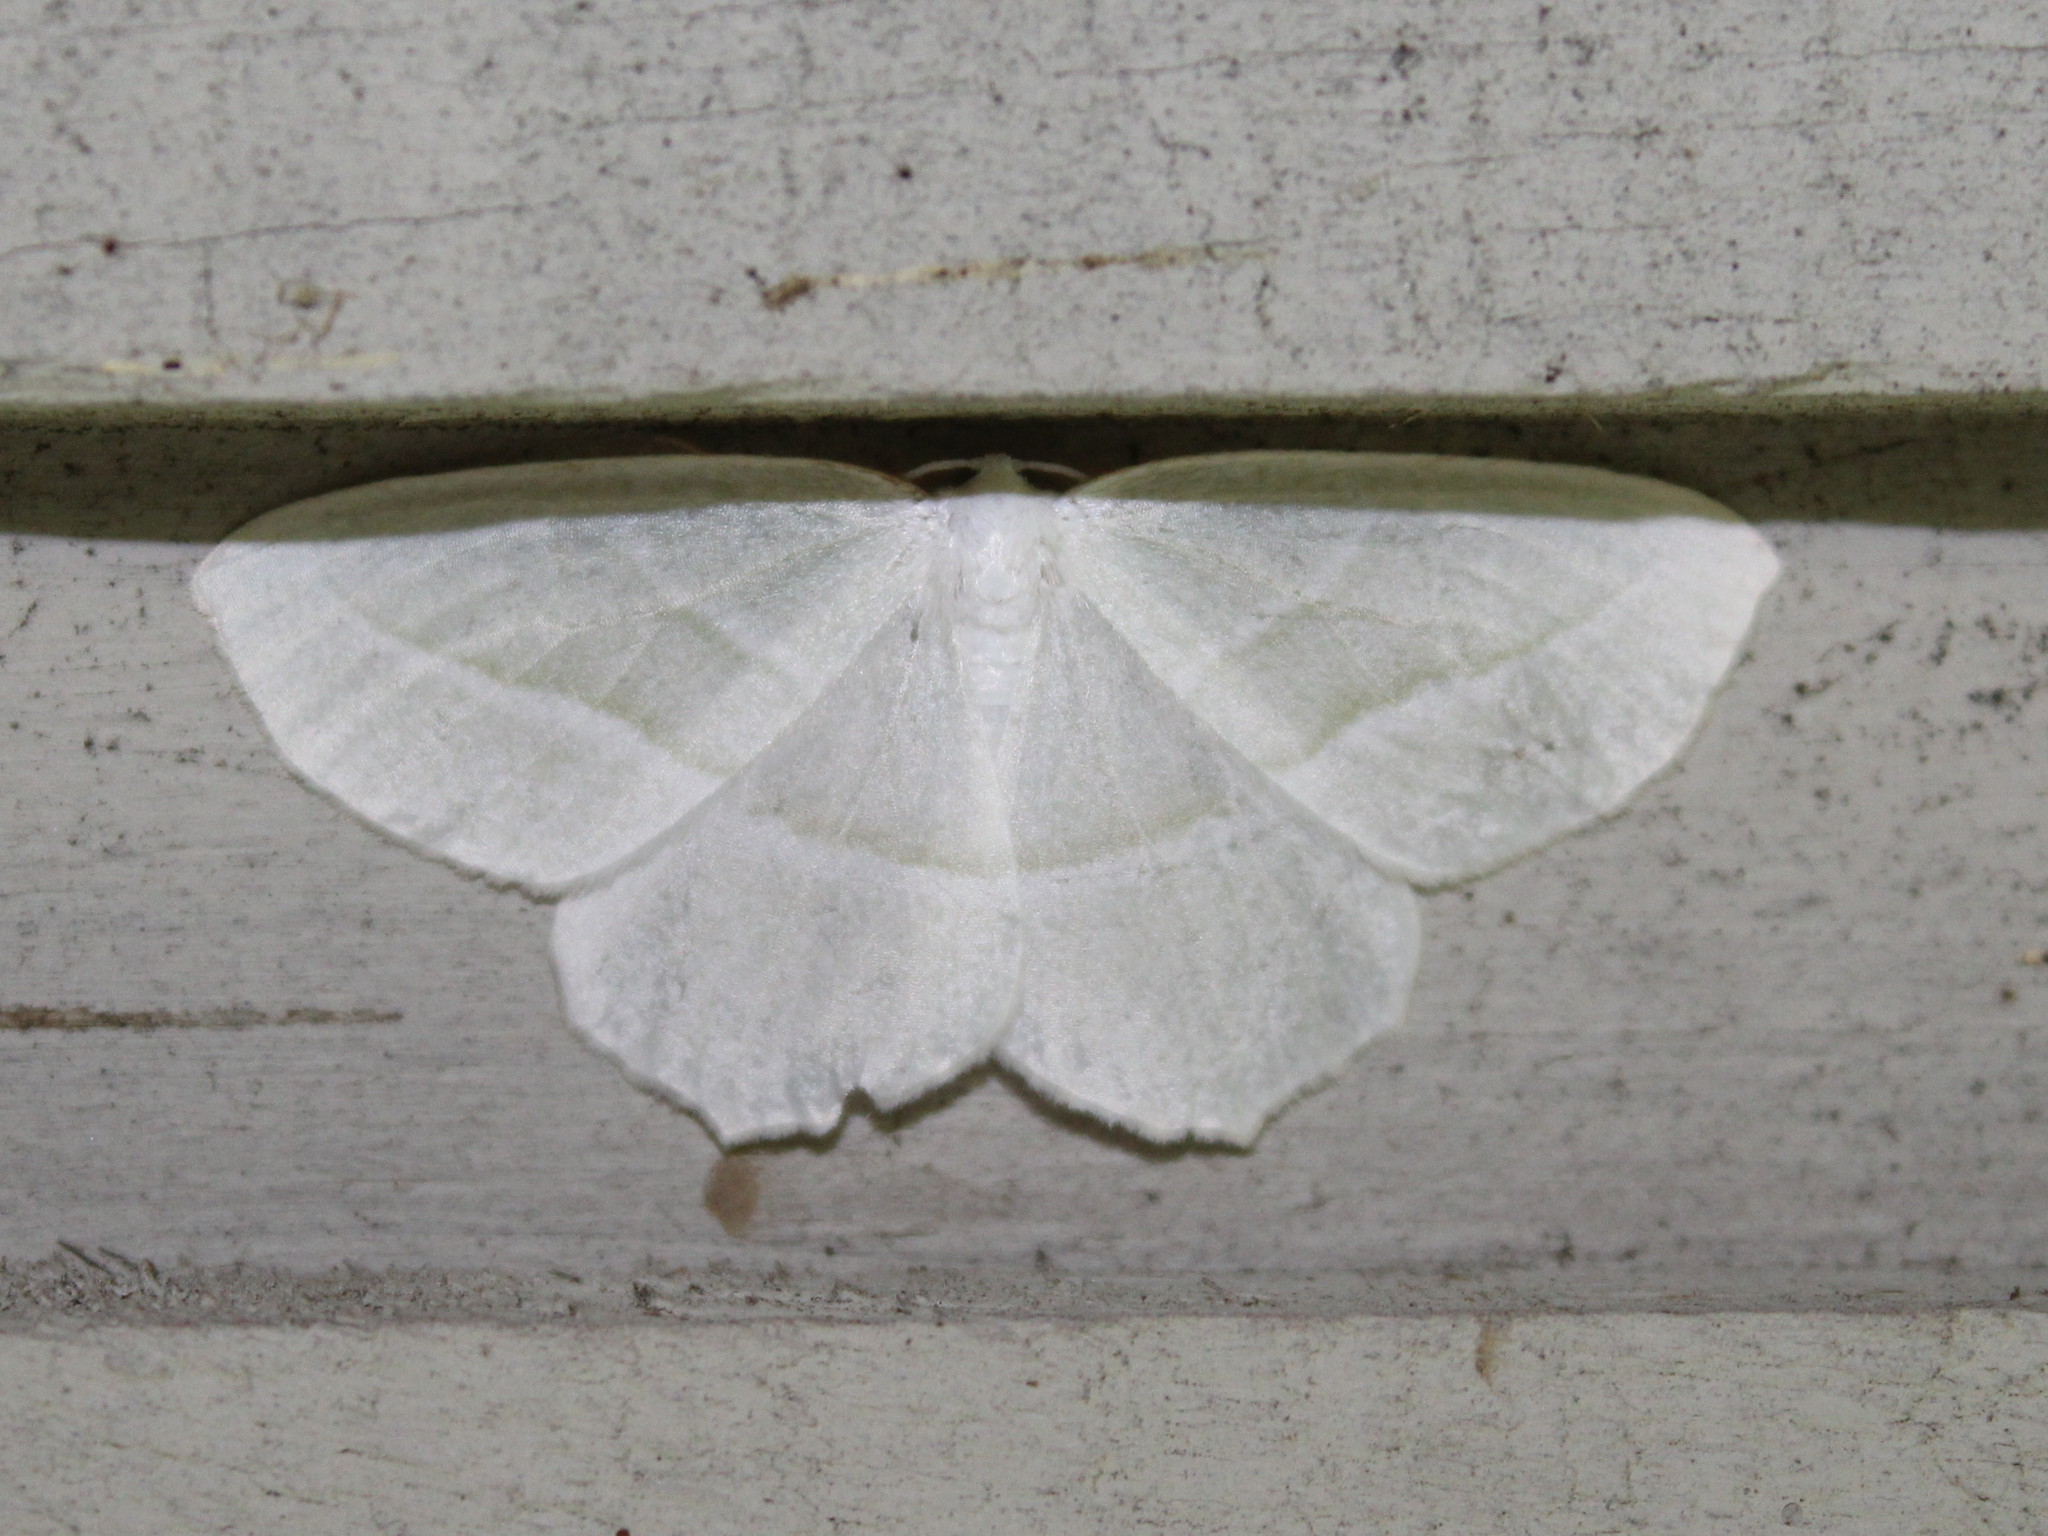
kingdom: Animalia
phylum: Arthropoda
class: Insecta
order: Lepidoptera
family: Geometridae
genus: Campaea
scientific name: Campaea perlata
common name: Fringed looper
